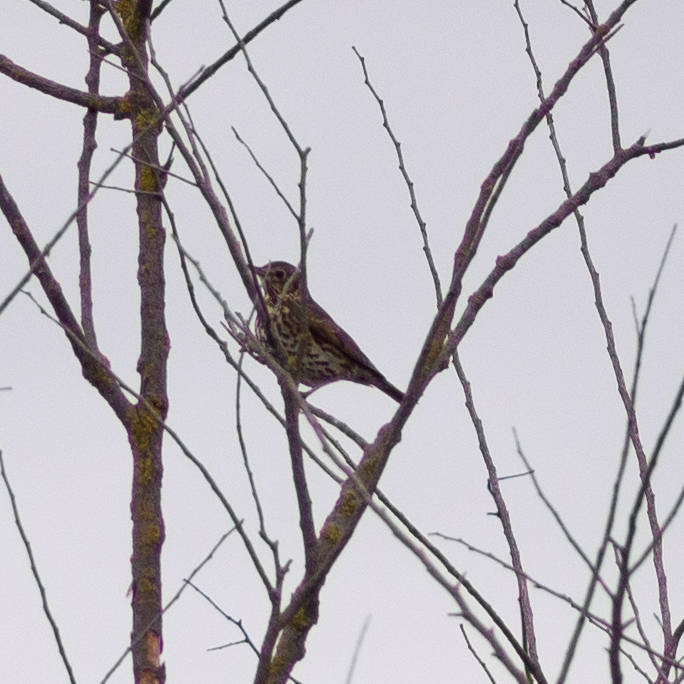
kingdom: Animalia
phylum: Chordata
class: Aves
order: Passeriformes
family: Turdidae
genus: Turdus
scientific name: Turdus philomelos
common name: Song thrush
